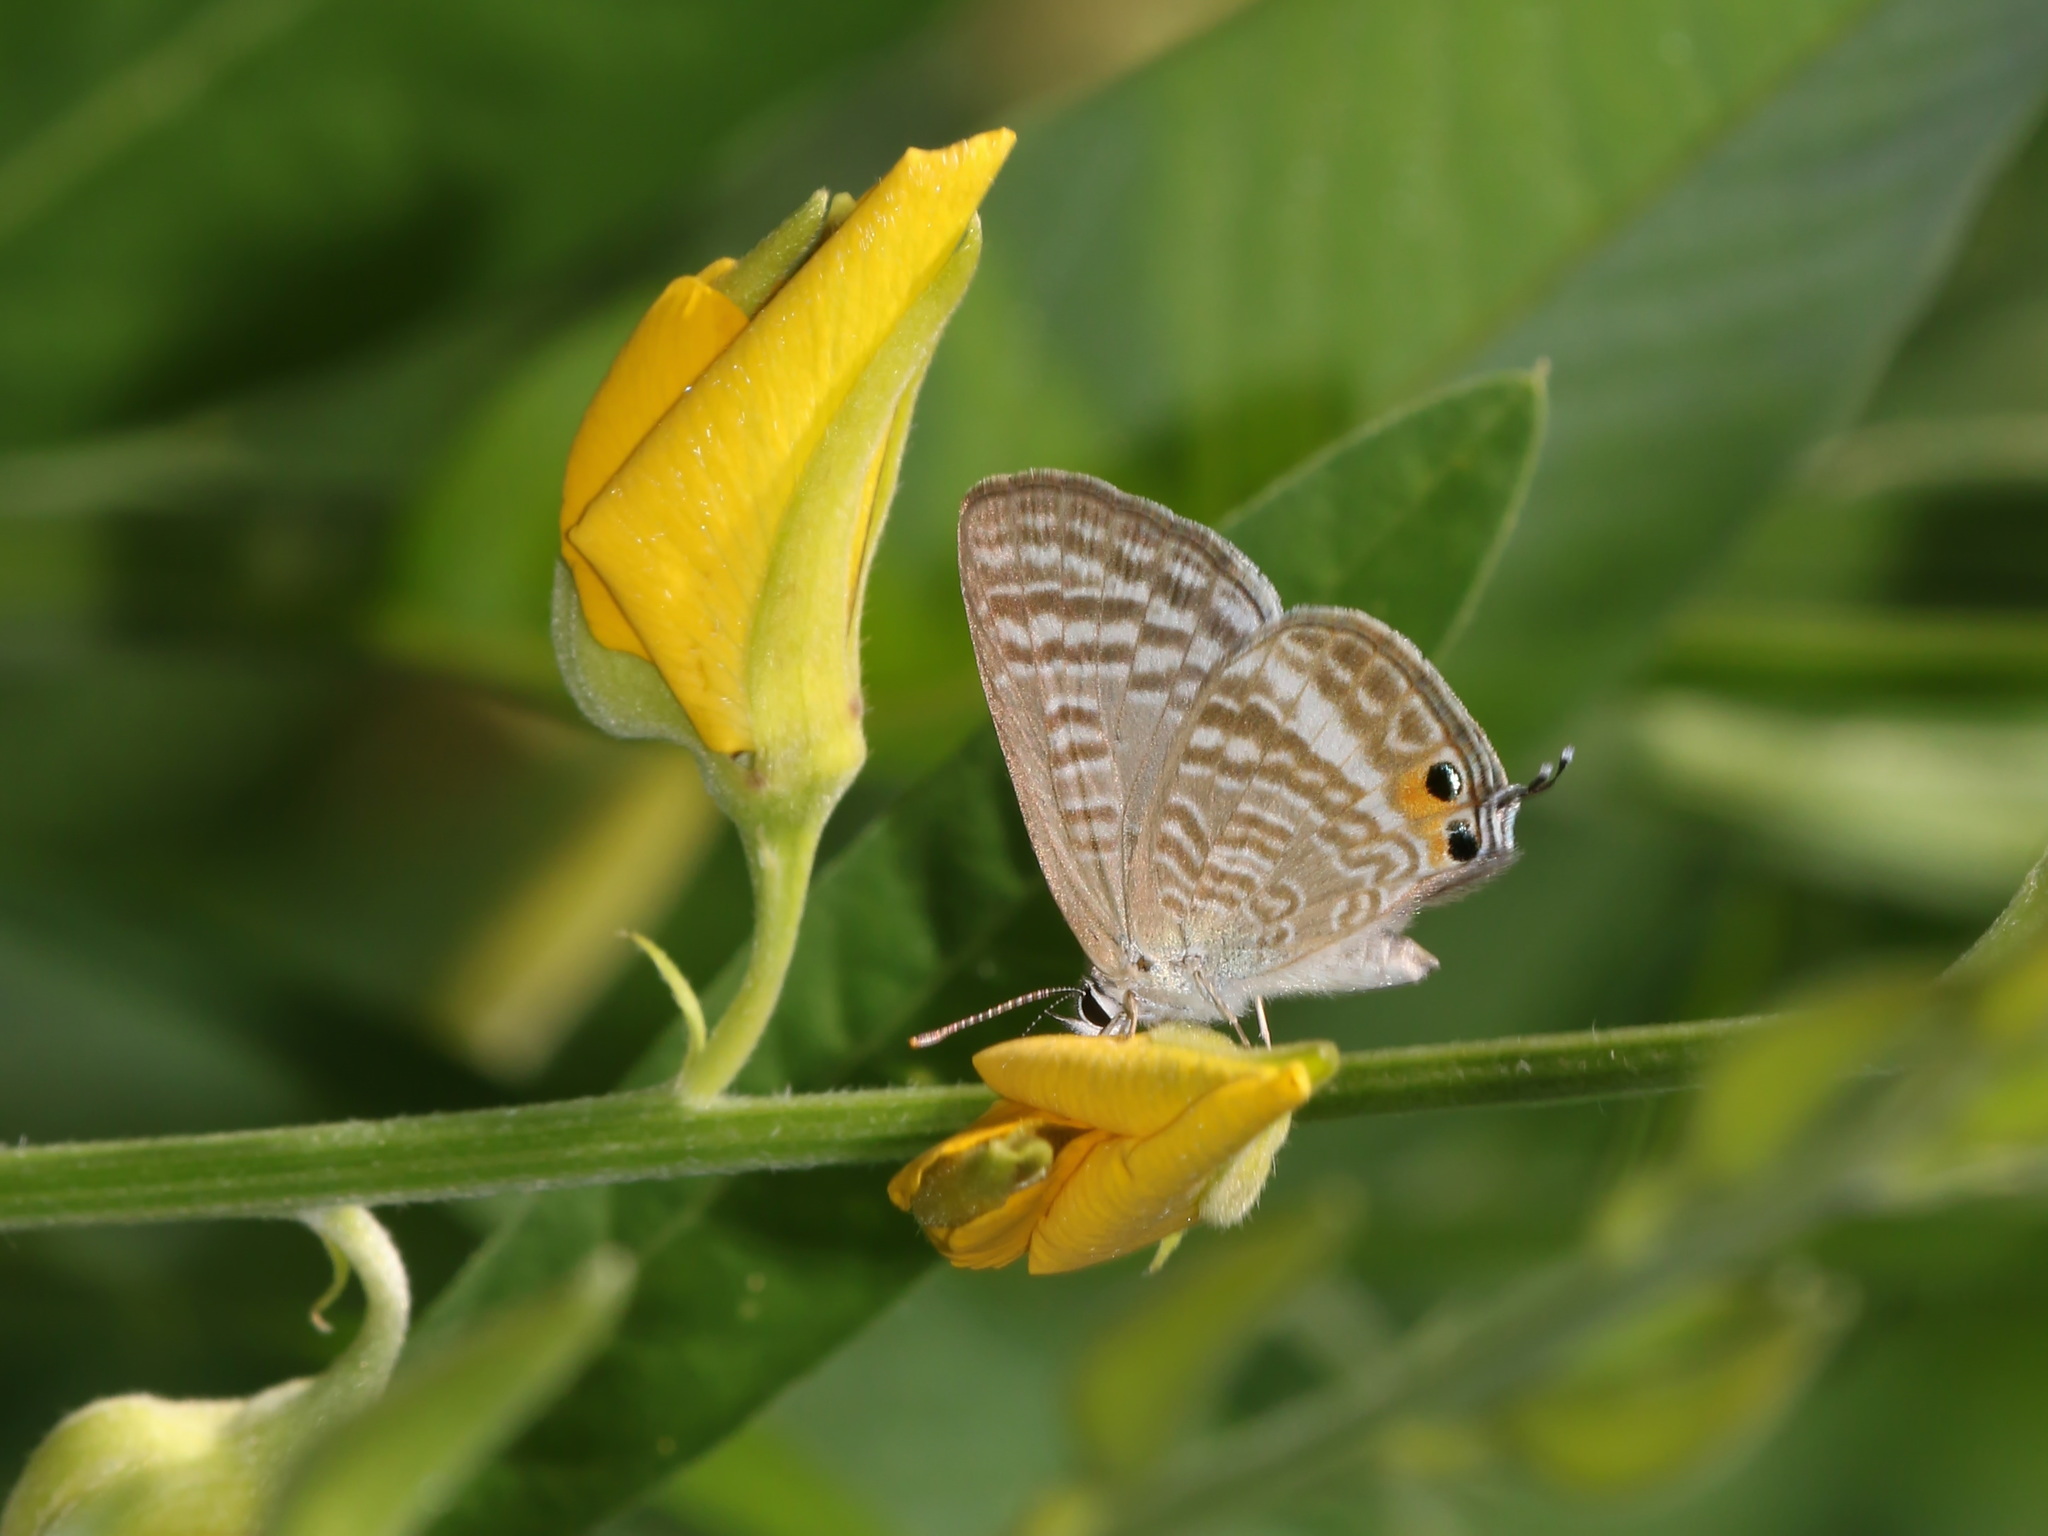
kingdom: Animalia
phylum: Arthropoda
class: Insecta
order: Lepidoptera
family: Lycaenidae
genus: Lampides
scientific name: Lampides boeticus
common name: Long-tailed blue
